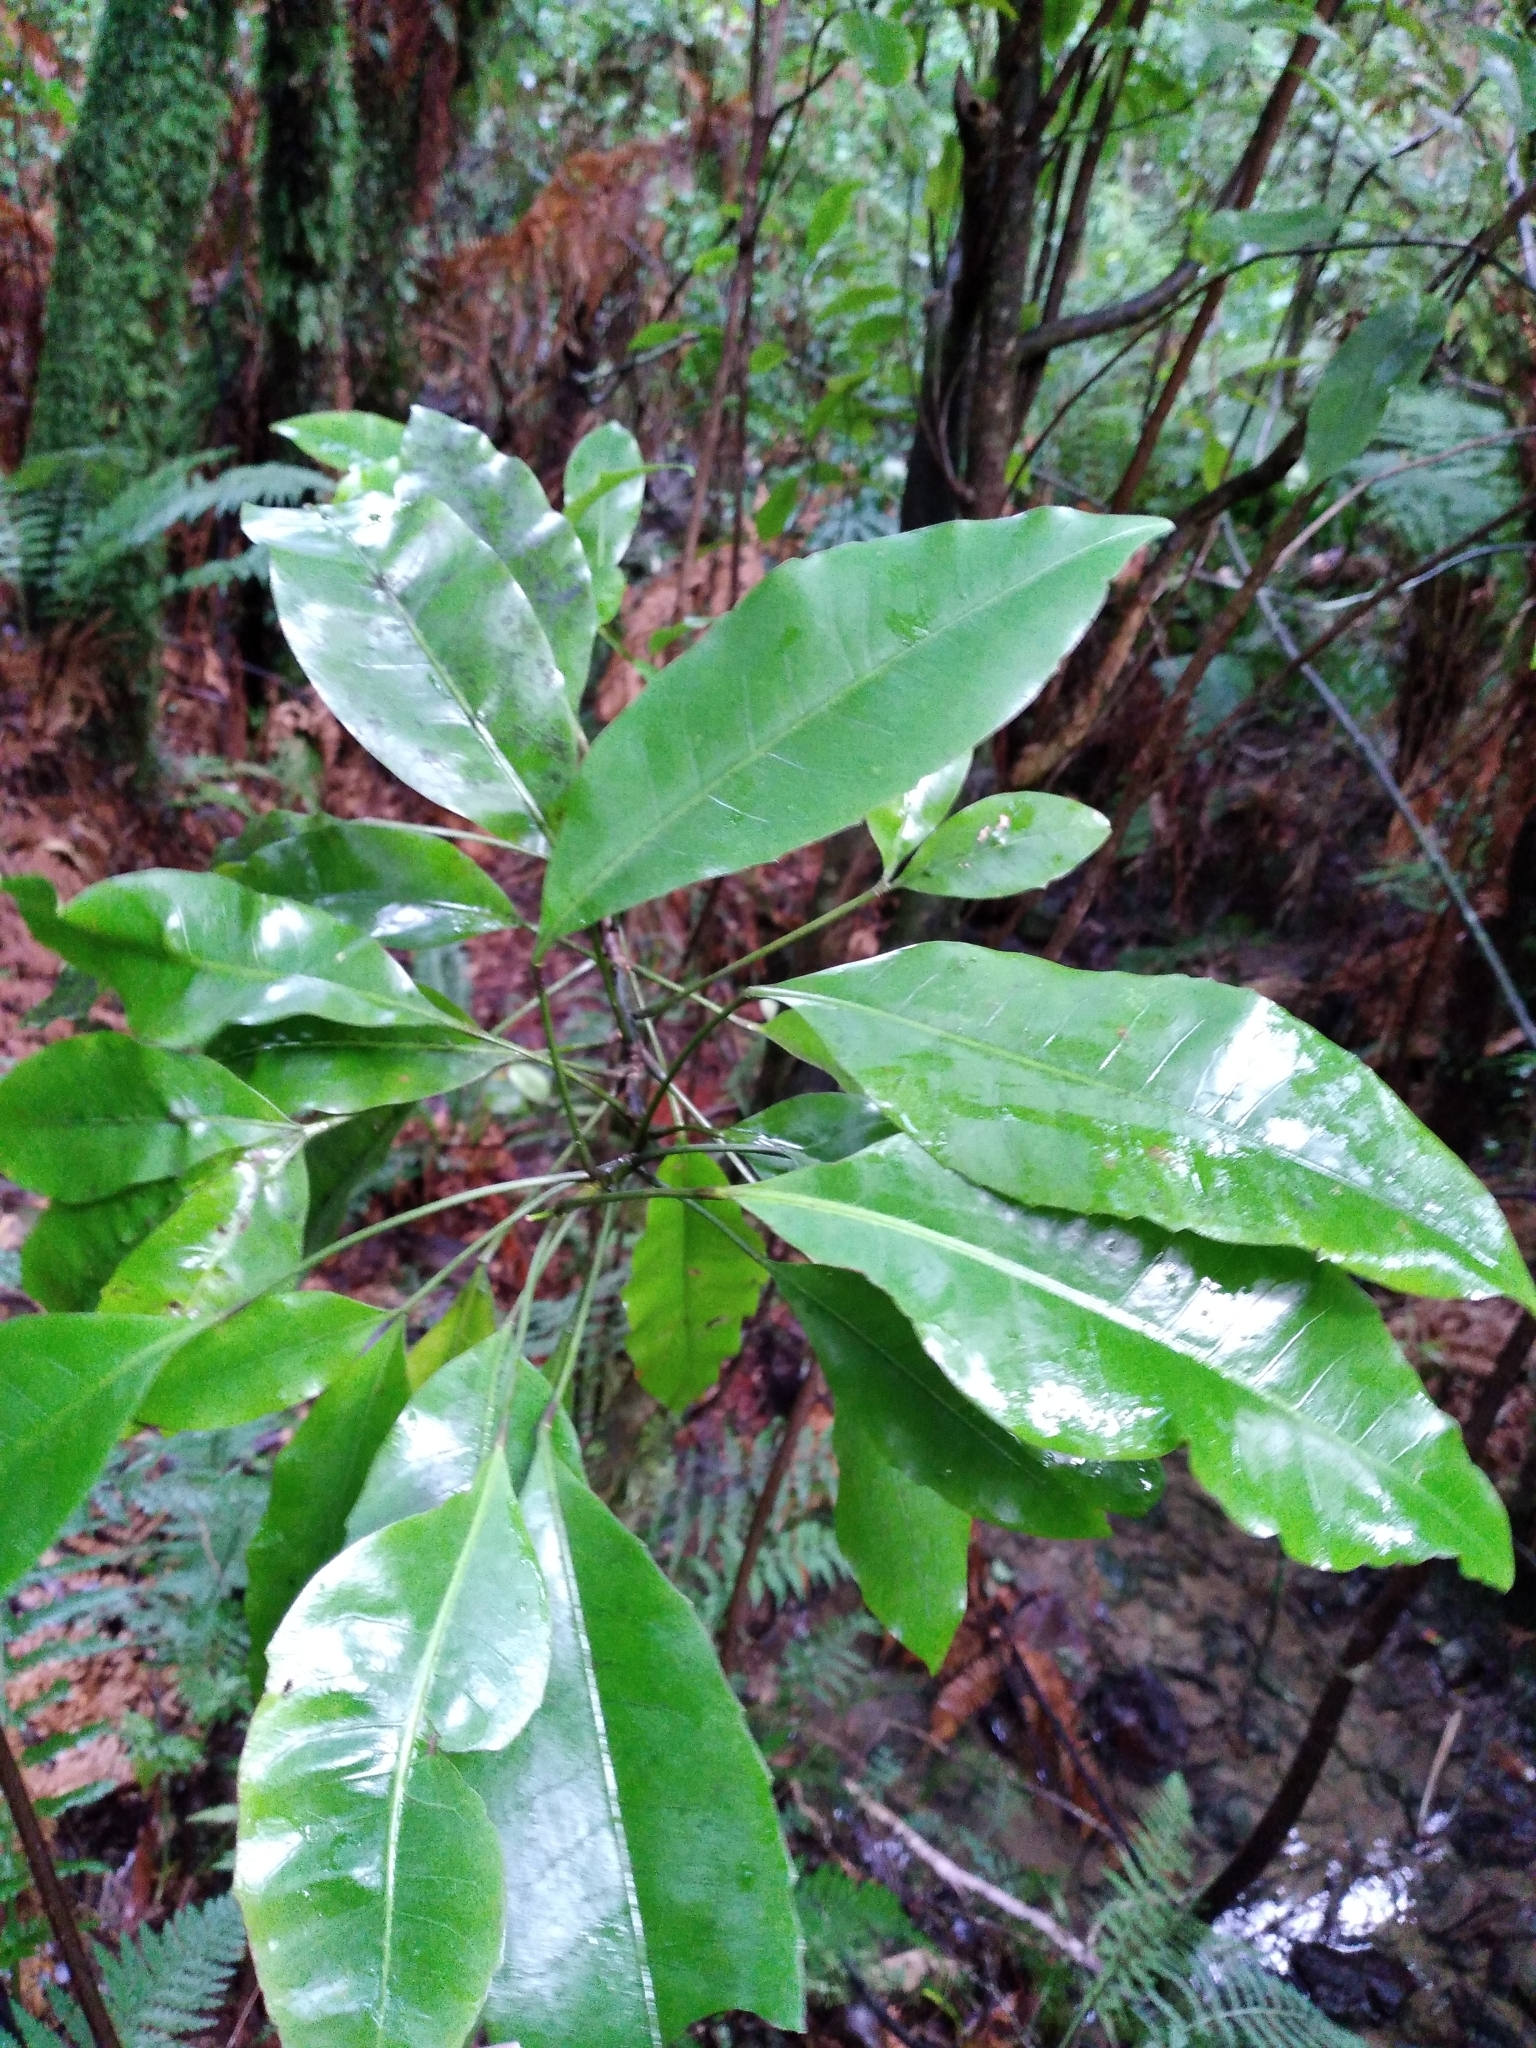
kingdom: Plantae
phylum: Tracheophyta
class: Magnoliopsida
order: Apiales
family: Araliaceae
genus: Raukaua
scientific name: Raukaua edgerleyi
